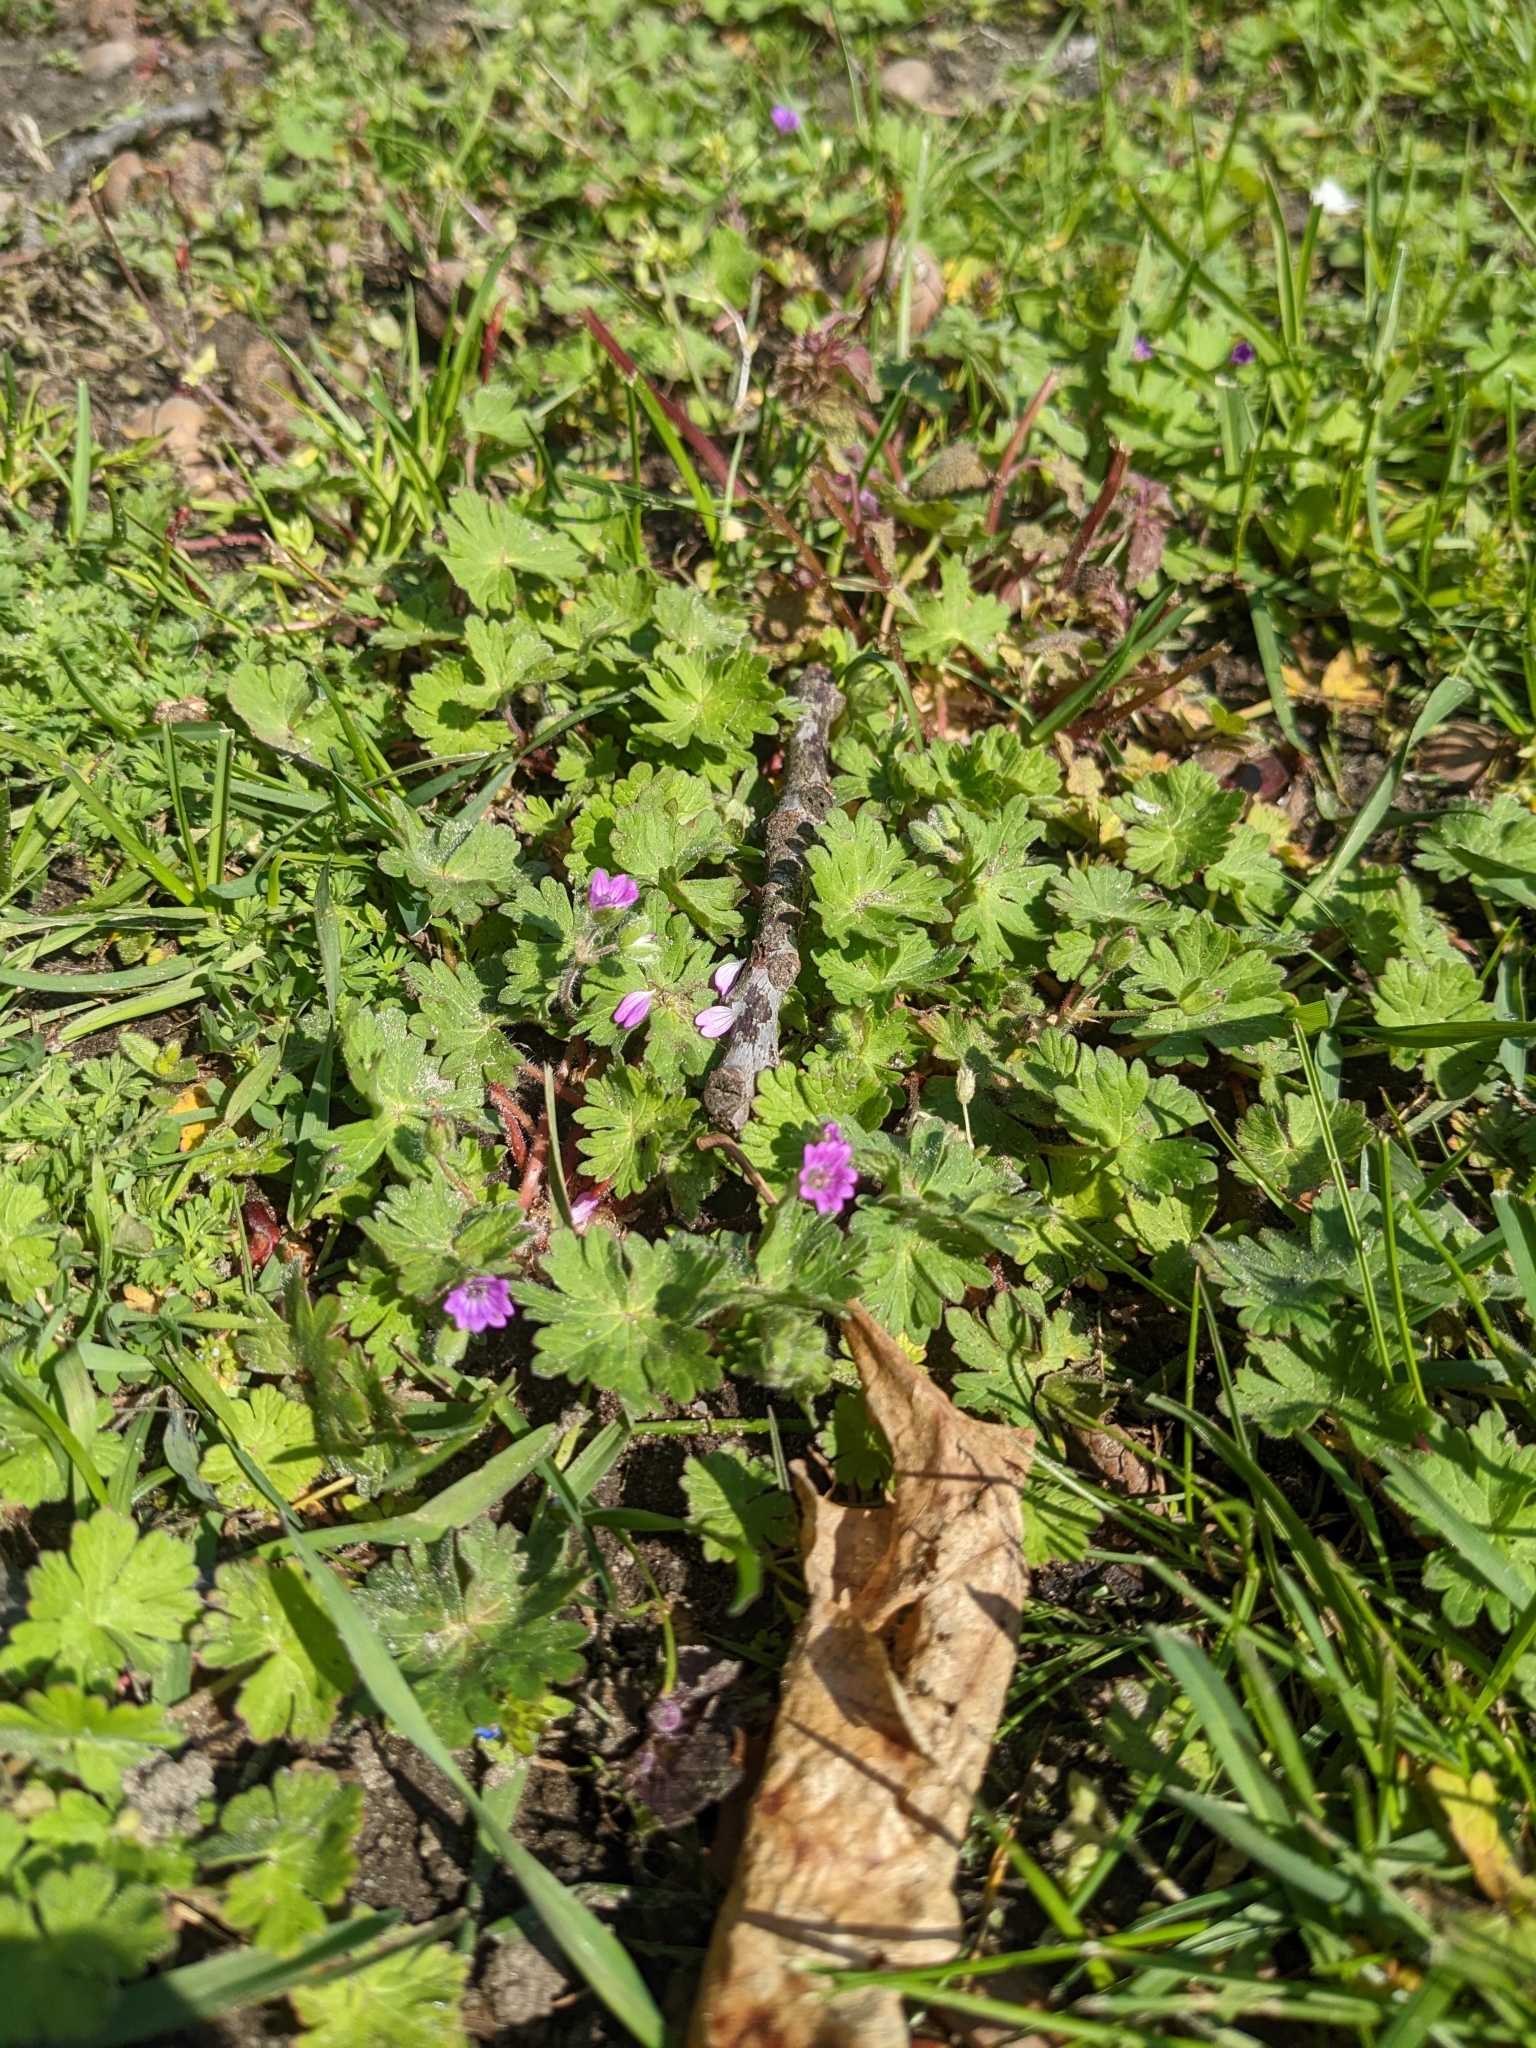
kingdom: Plantae
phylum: Tracheophyta
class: Magnoliopsida
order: Geraniales
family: Geraniaceae
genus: Geranium
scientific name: Geranium molle
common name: Dove's-foot crane's-bill
